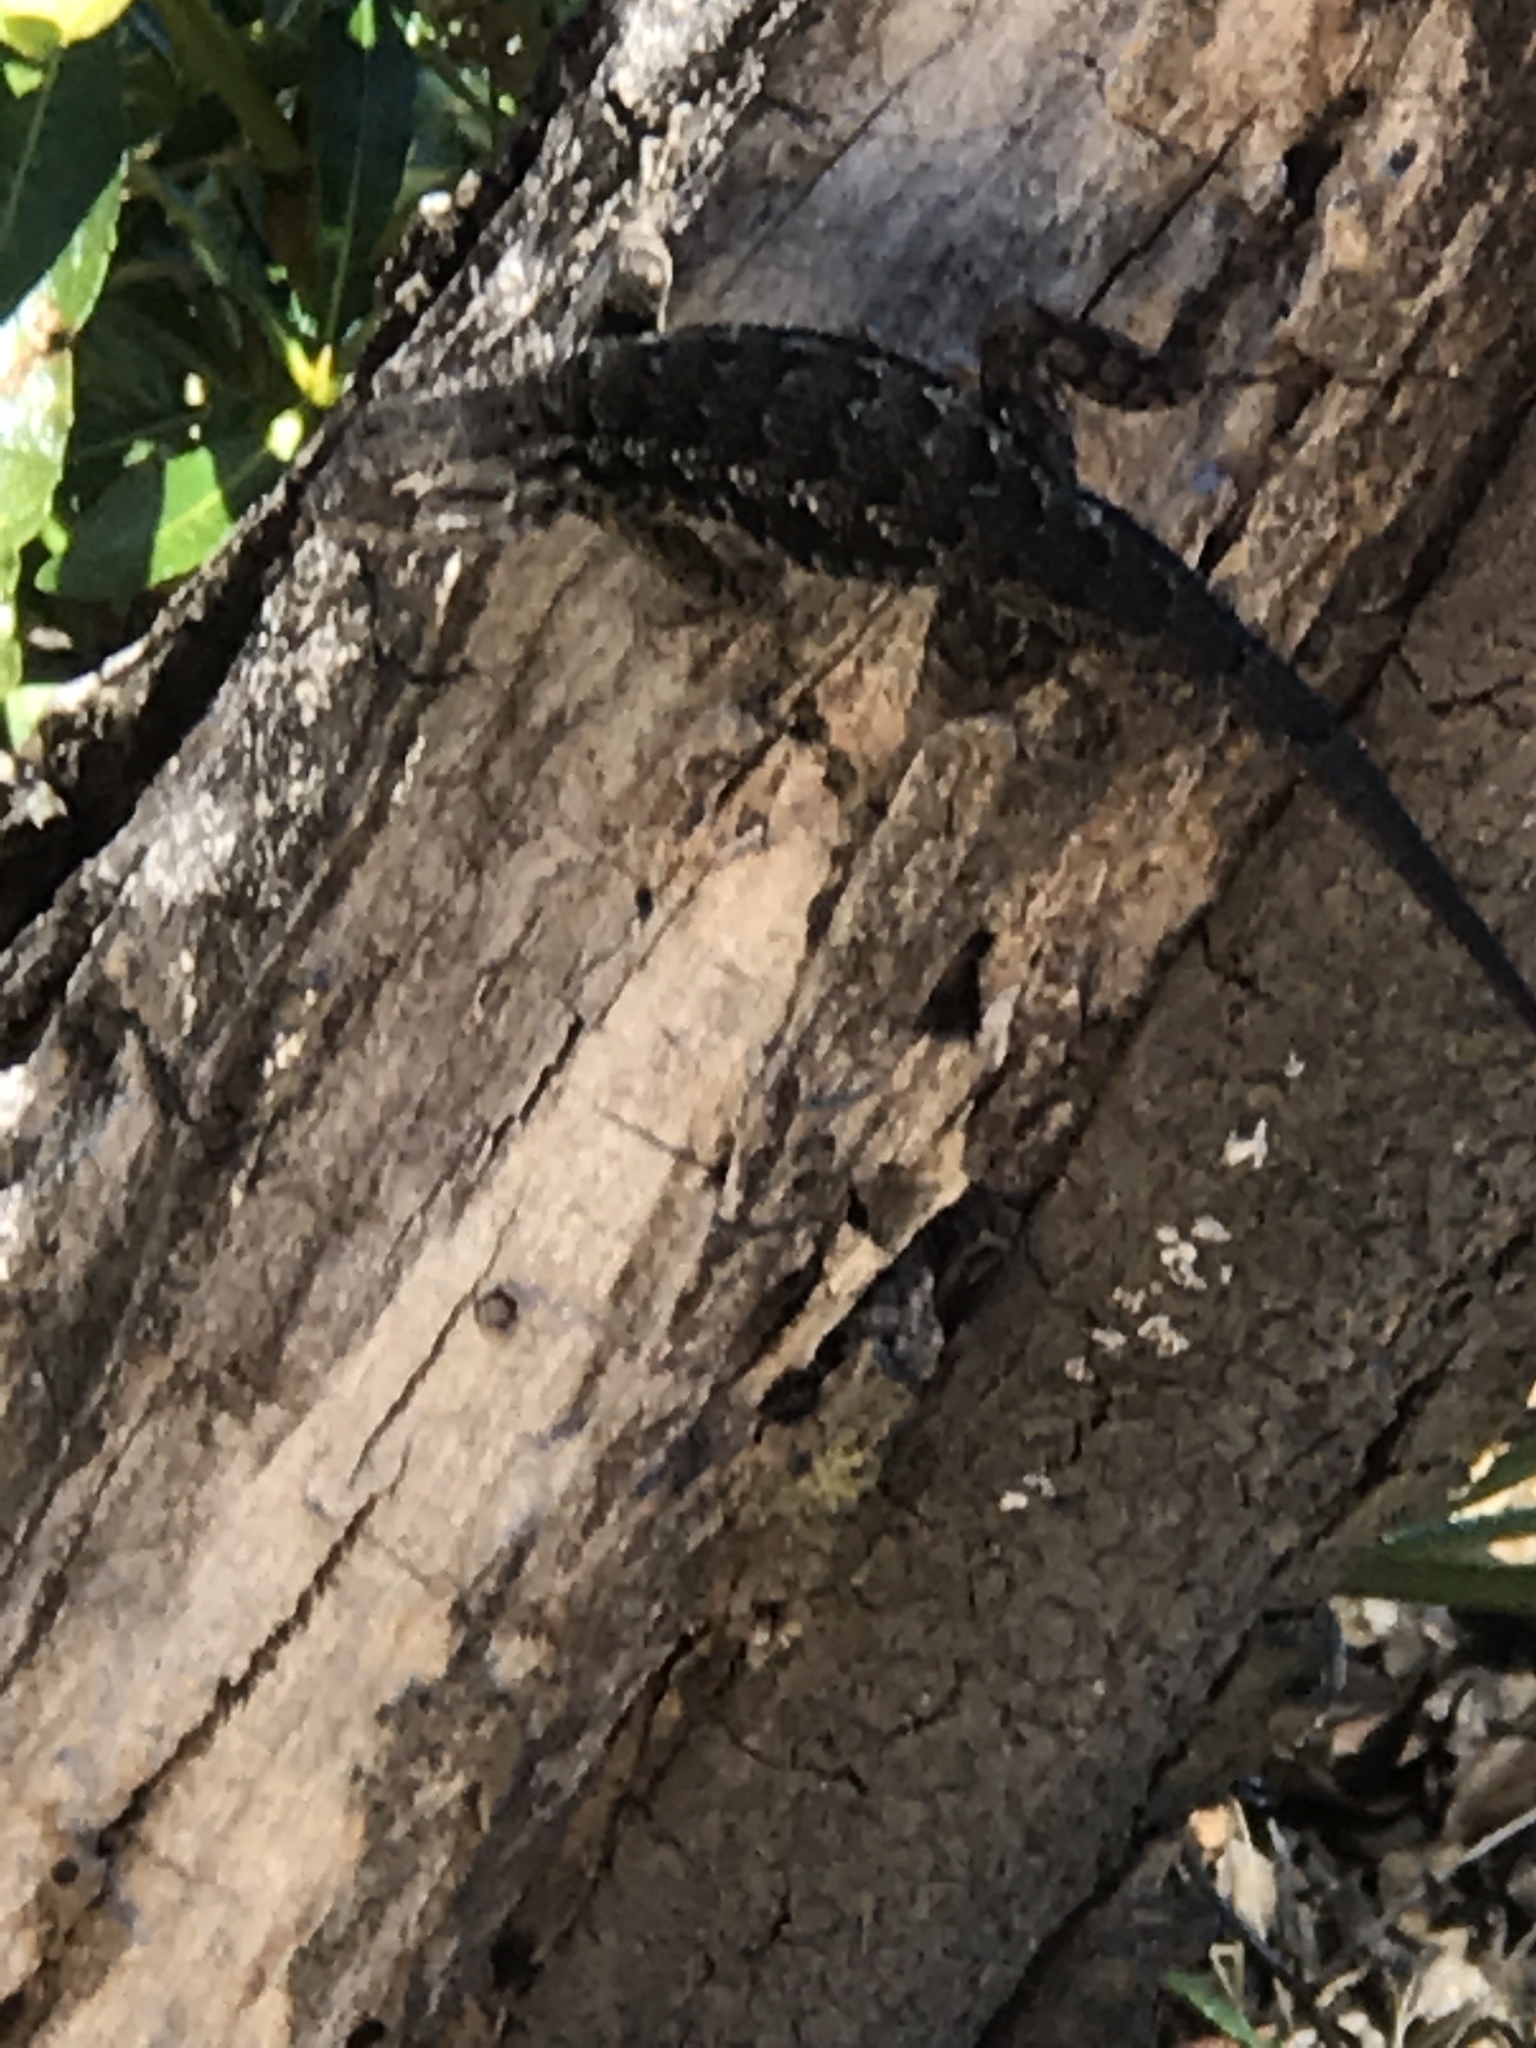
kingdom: Animalia
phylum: Chordata
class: Squamata
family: Phrynosomatidae
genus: Sceloporus
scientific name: Sceloporus occidentalis
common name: Western fence lizard
